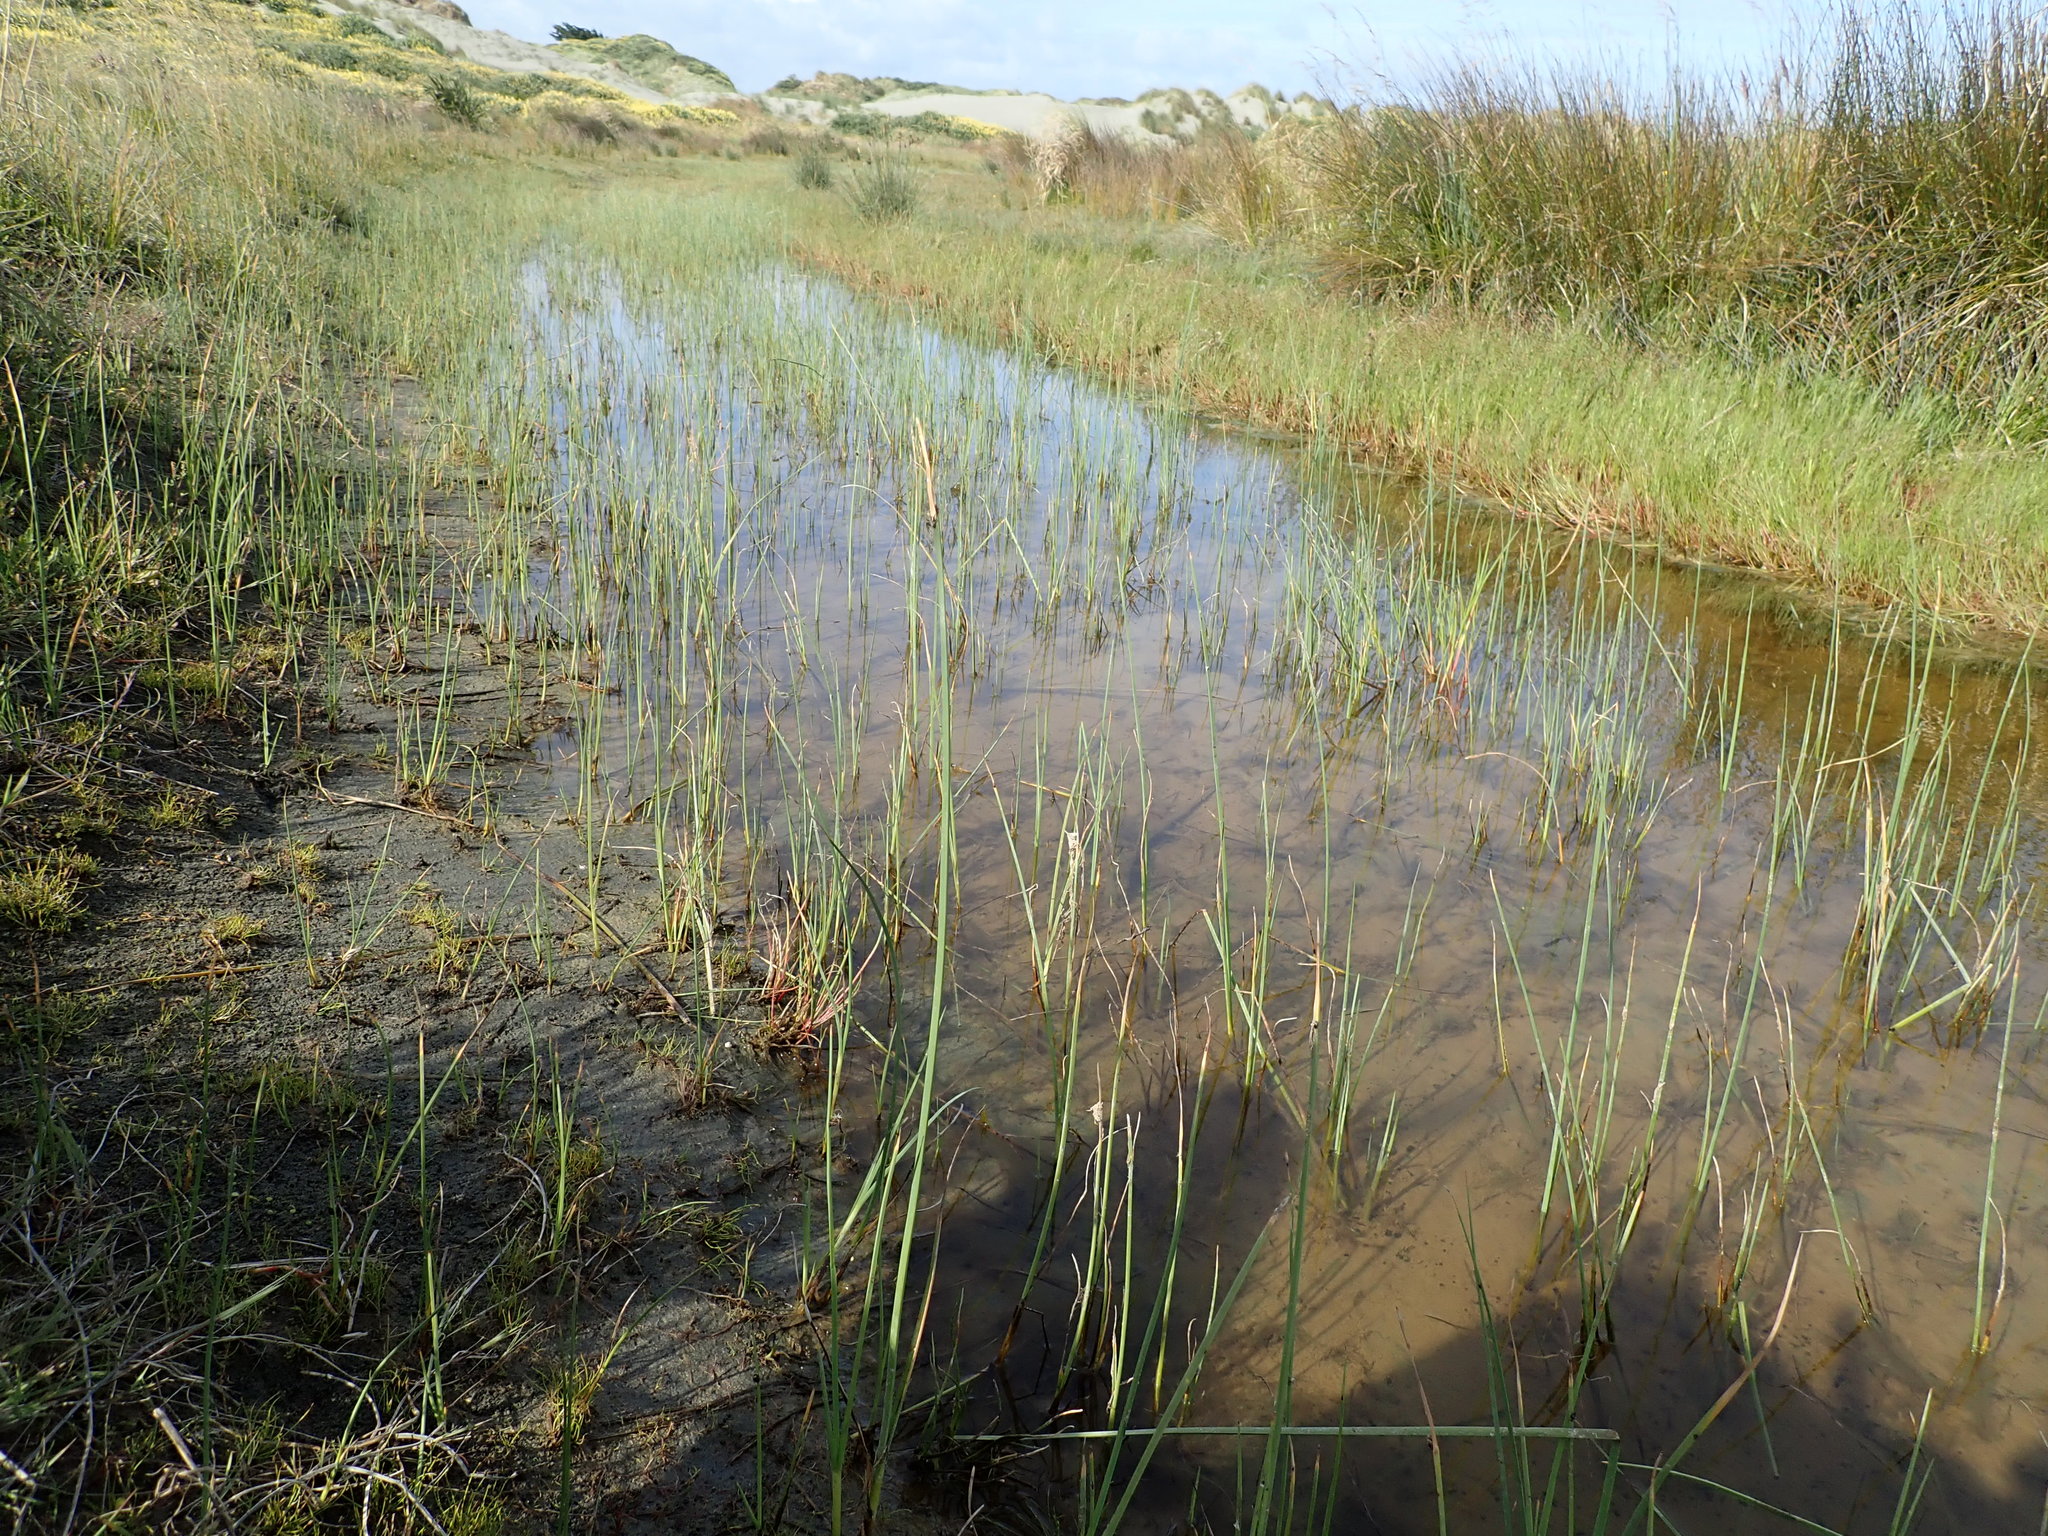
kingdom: Plantae
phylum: Tracheophyta
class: Liliopsida
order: Poales
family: Cyperaceae
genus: Schoenoplectus
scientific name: Schoenoplectus pungens
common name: Sharp club-rush
